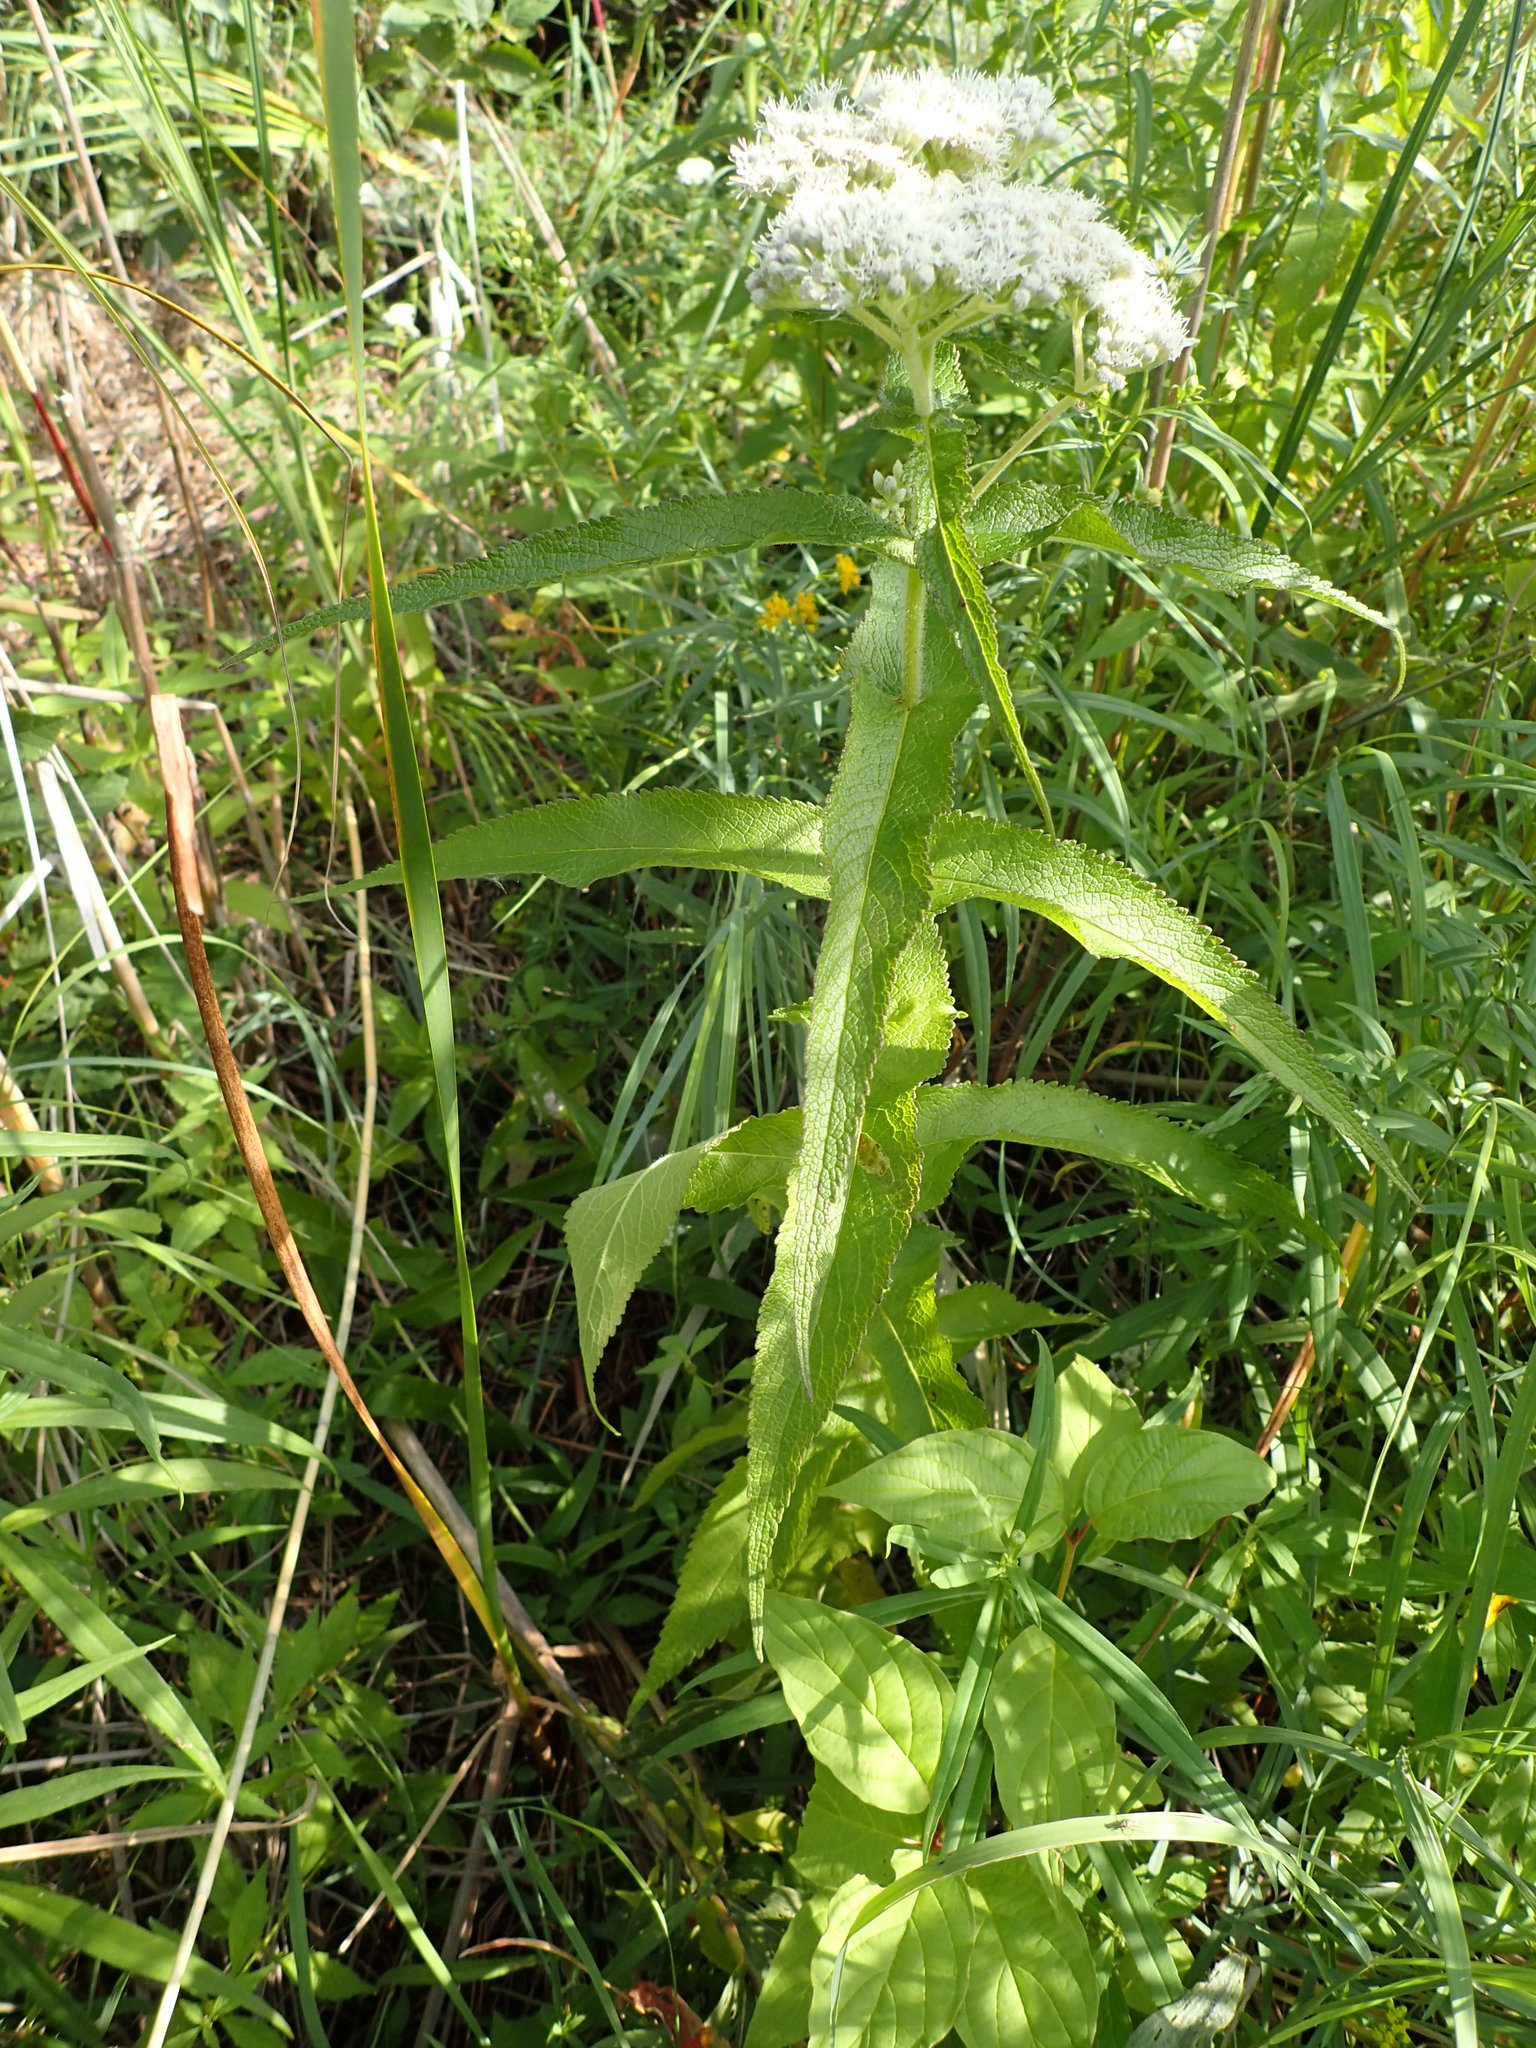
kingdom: Plantae
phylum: Tracheophyta
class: Magnoliopsida
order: Asterales
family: Asteraceae
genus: Eupatorium
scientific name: Eupatorium perfoliatum
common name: Boneset
